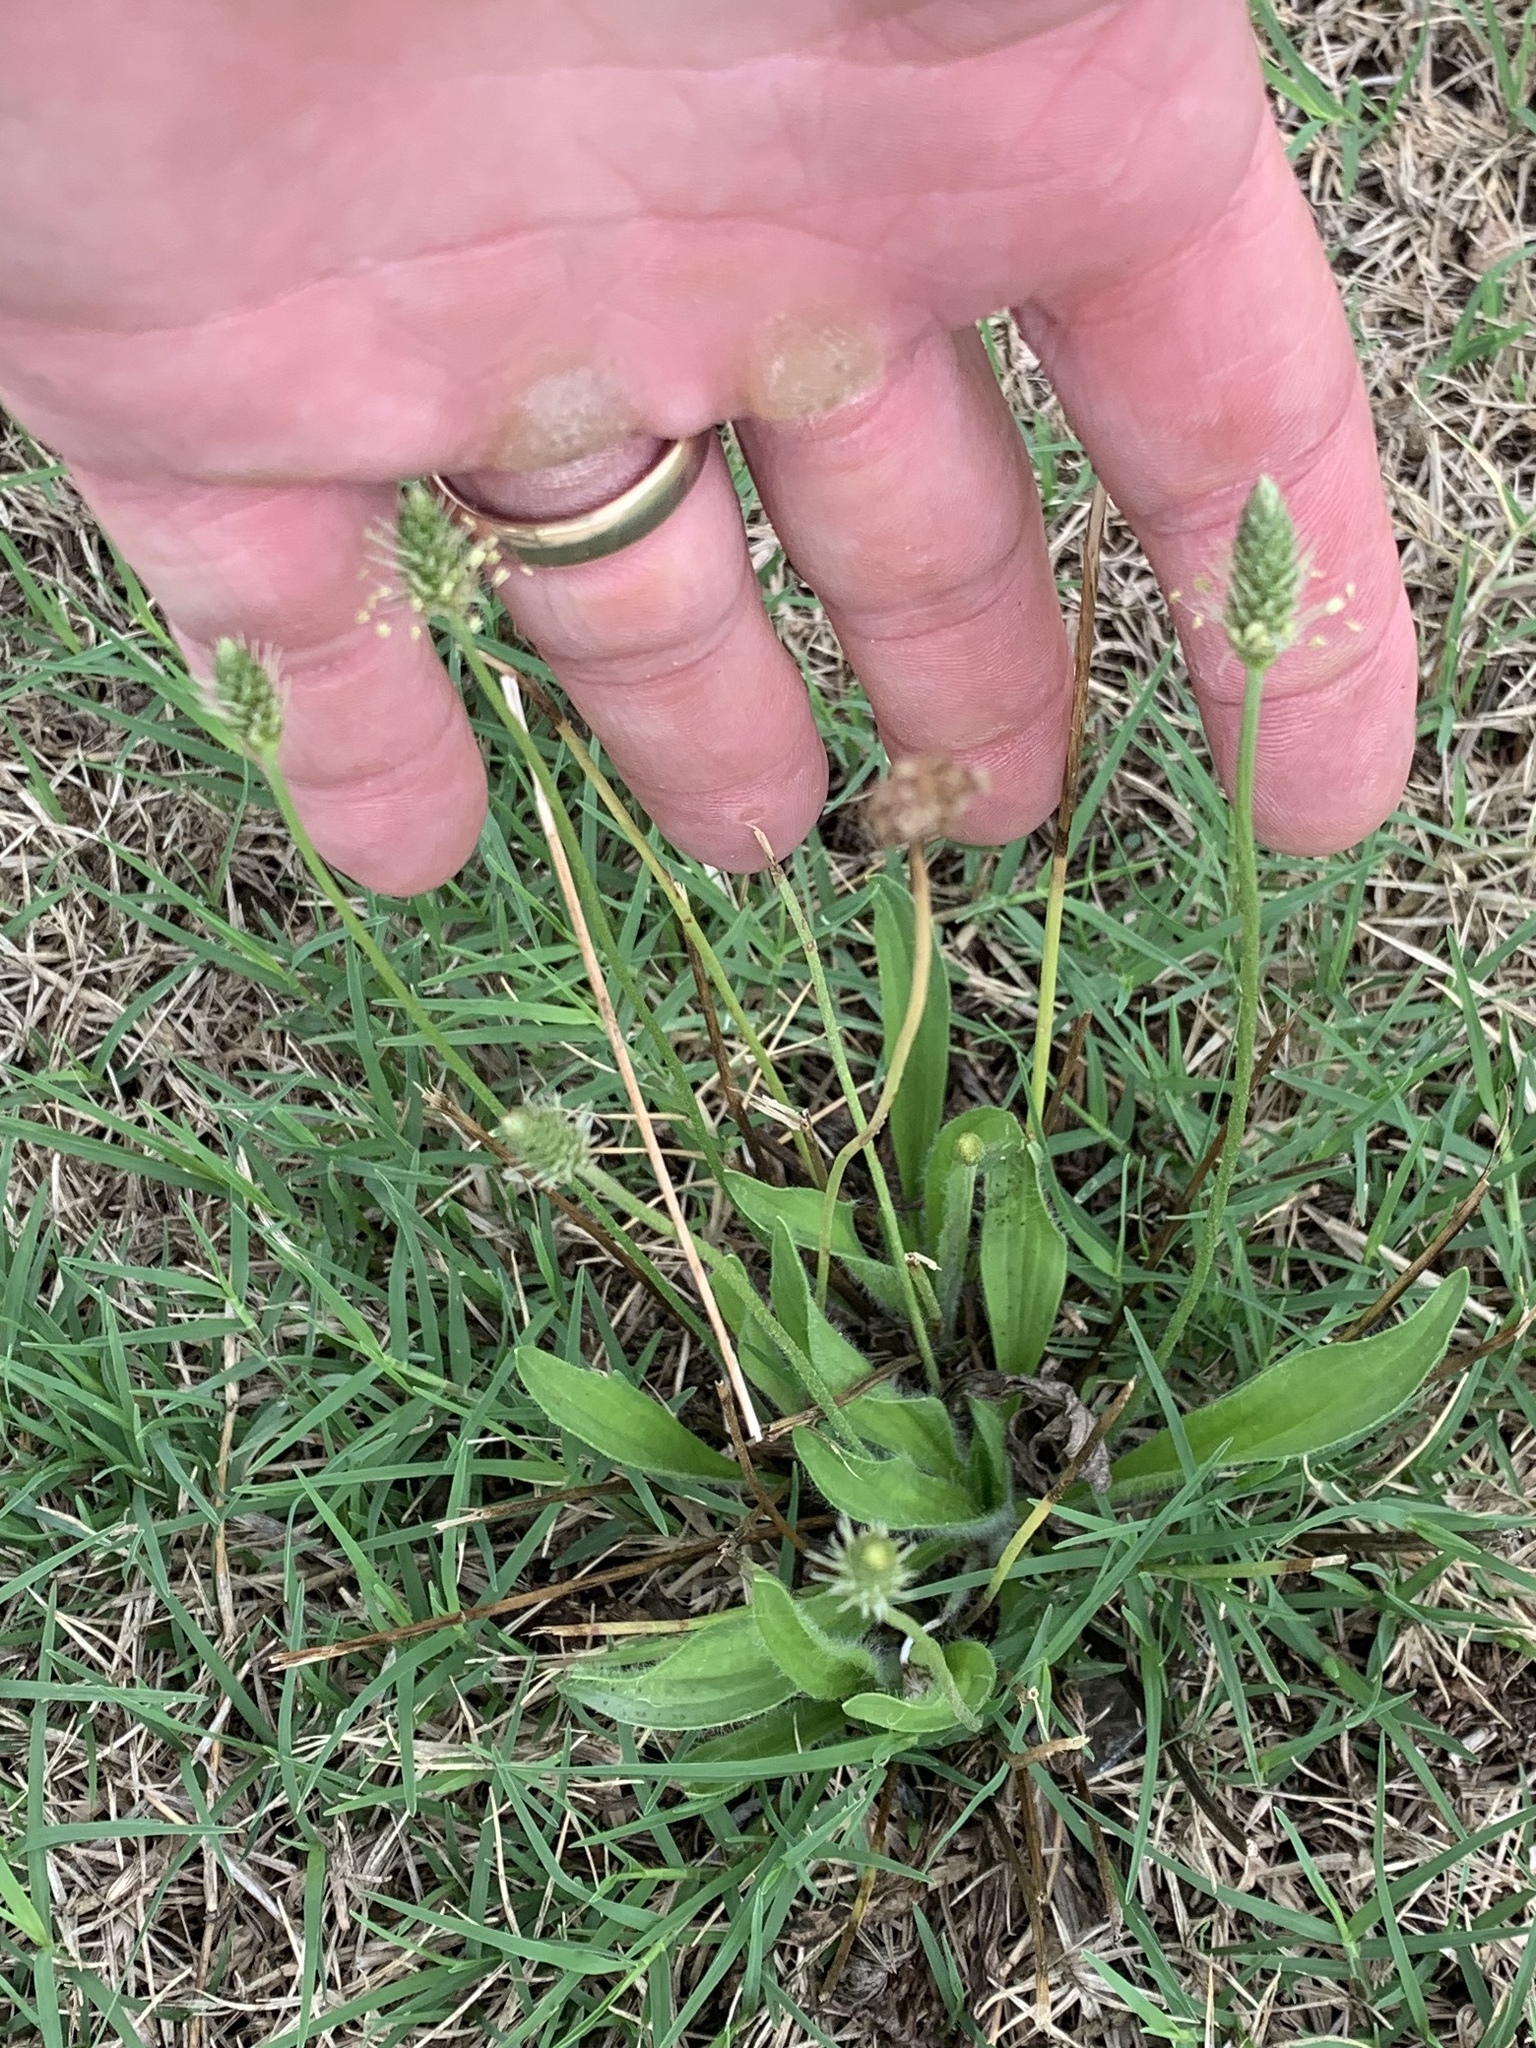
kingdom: Plantae
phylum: Tracheophyta
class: Magnoliopsida
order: Lamiales
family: Plantaginaceae
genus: Plantago
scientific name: Plantago lanceolata
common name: Ribwort plantain
